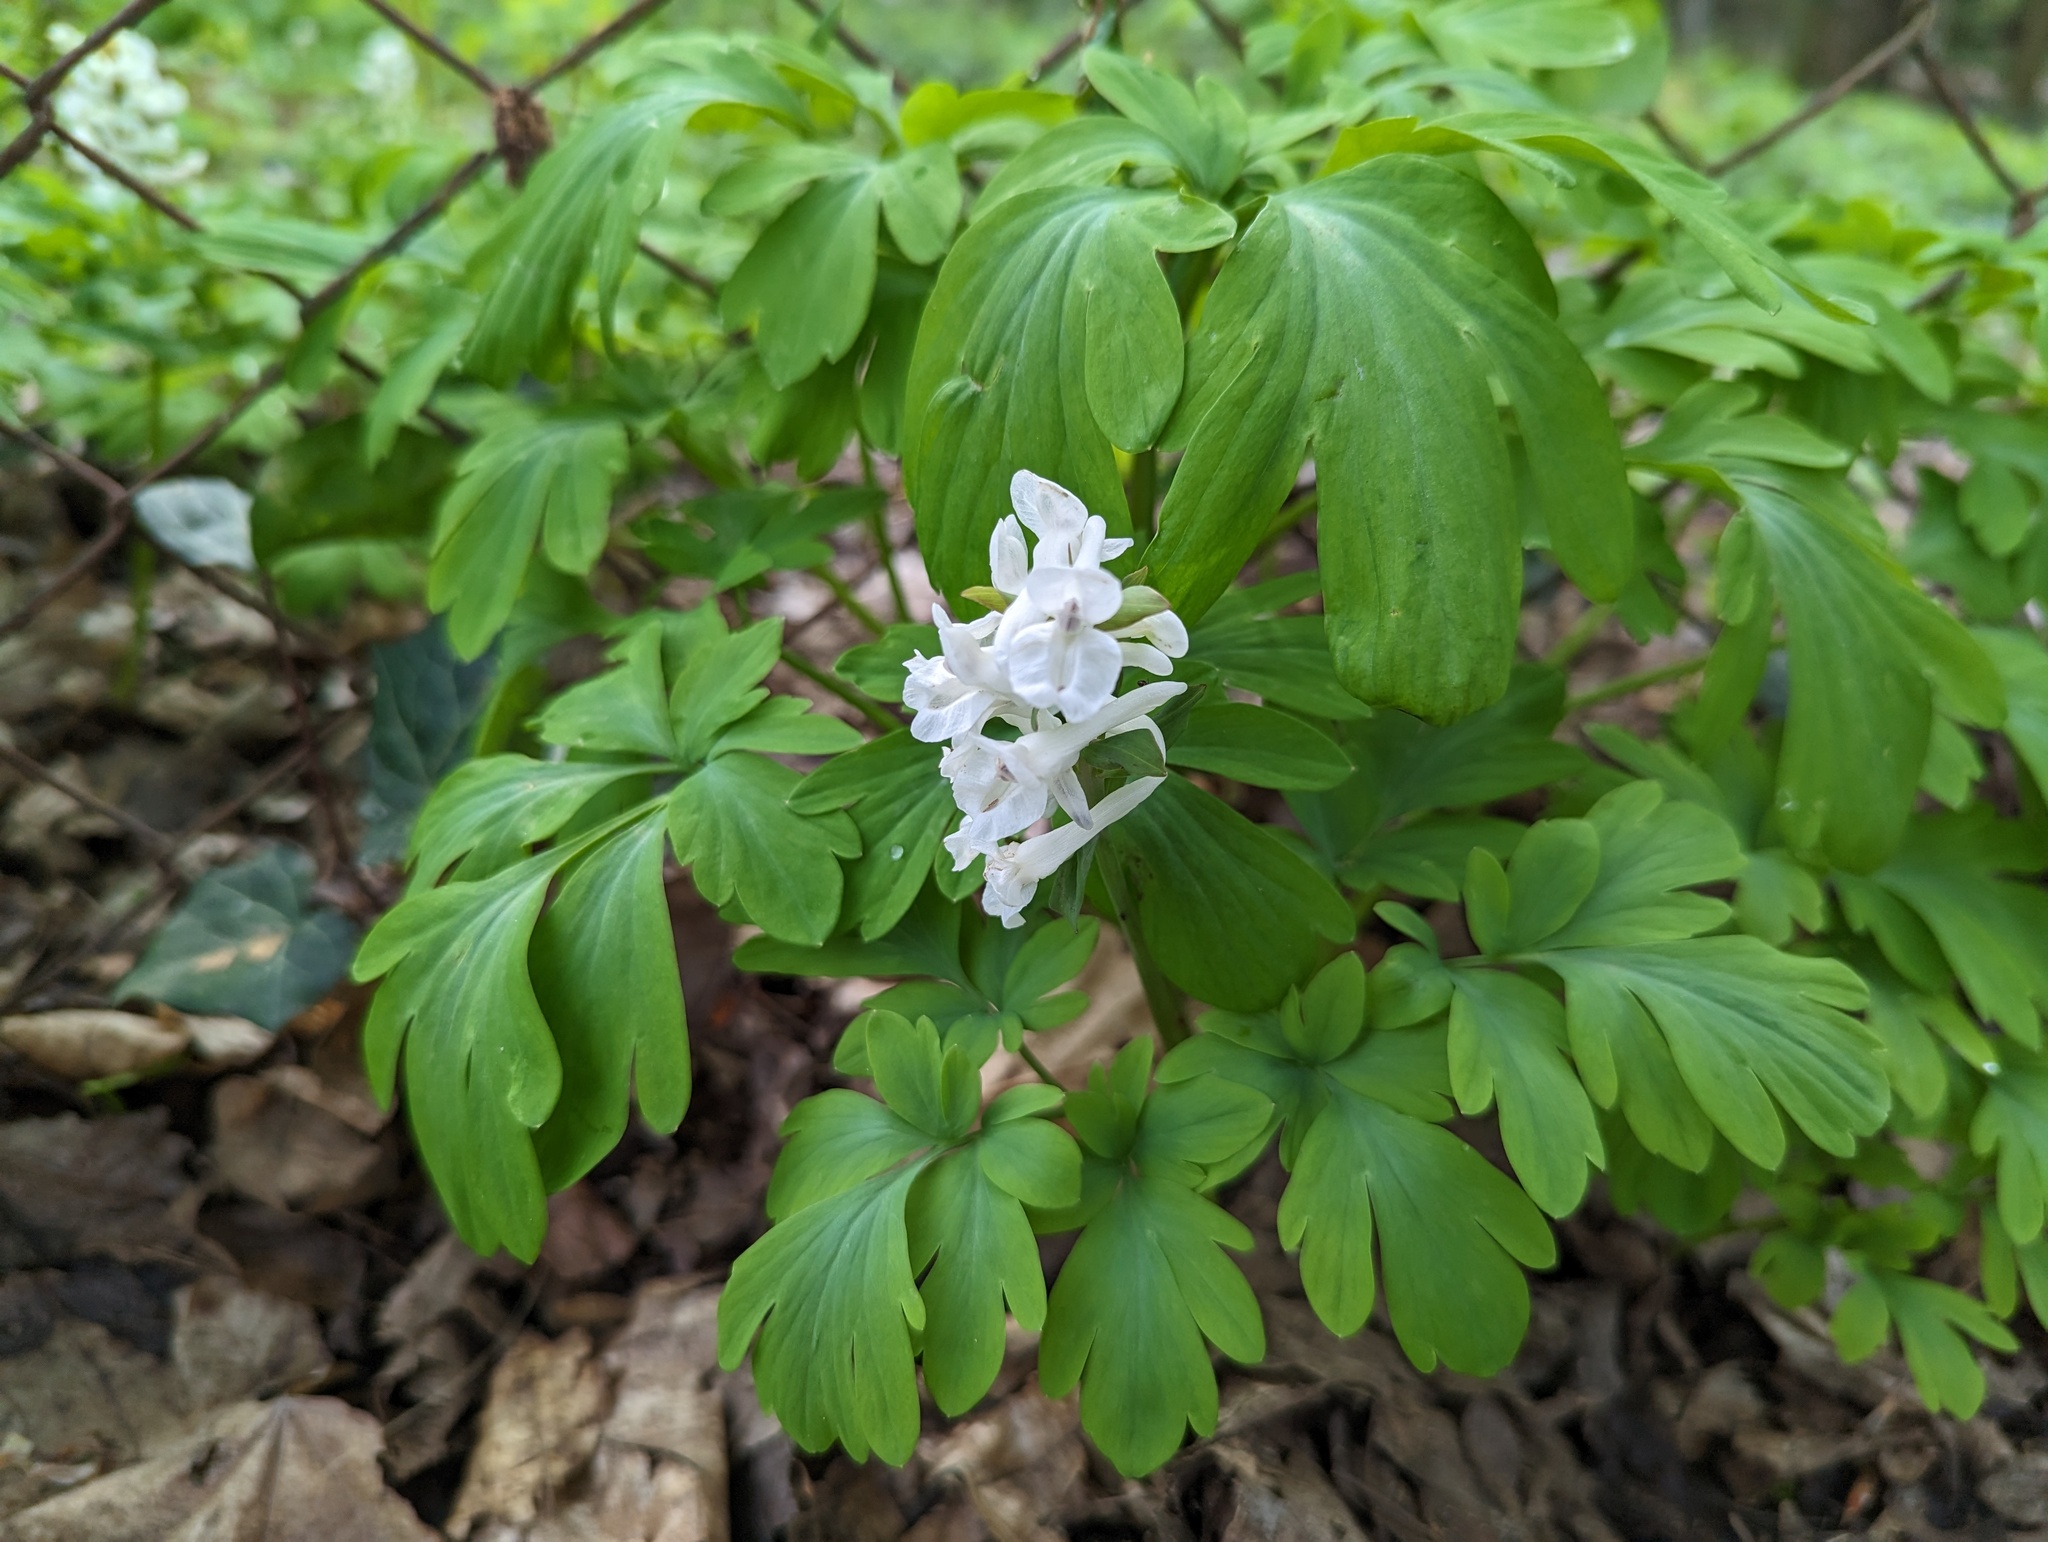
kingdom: Plantae
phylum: Tracheophyta
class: Magnoliopsida
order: Ranunculales
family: Papaveraceae
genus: Corydalis
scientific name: Corydalis cava
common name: Hollowroot
